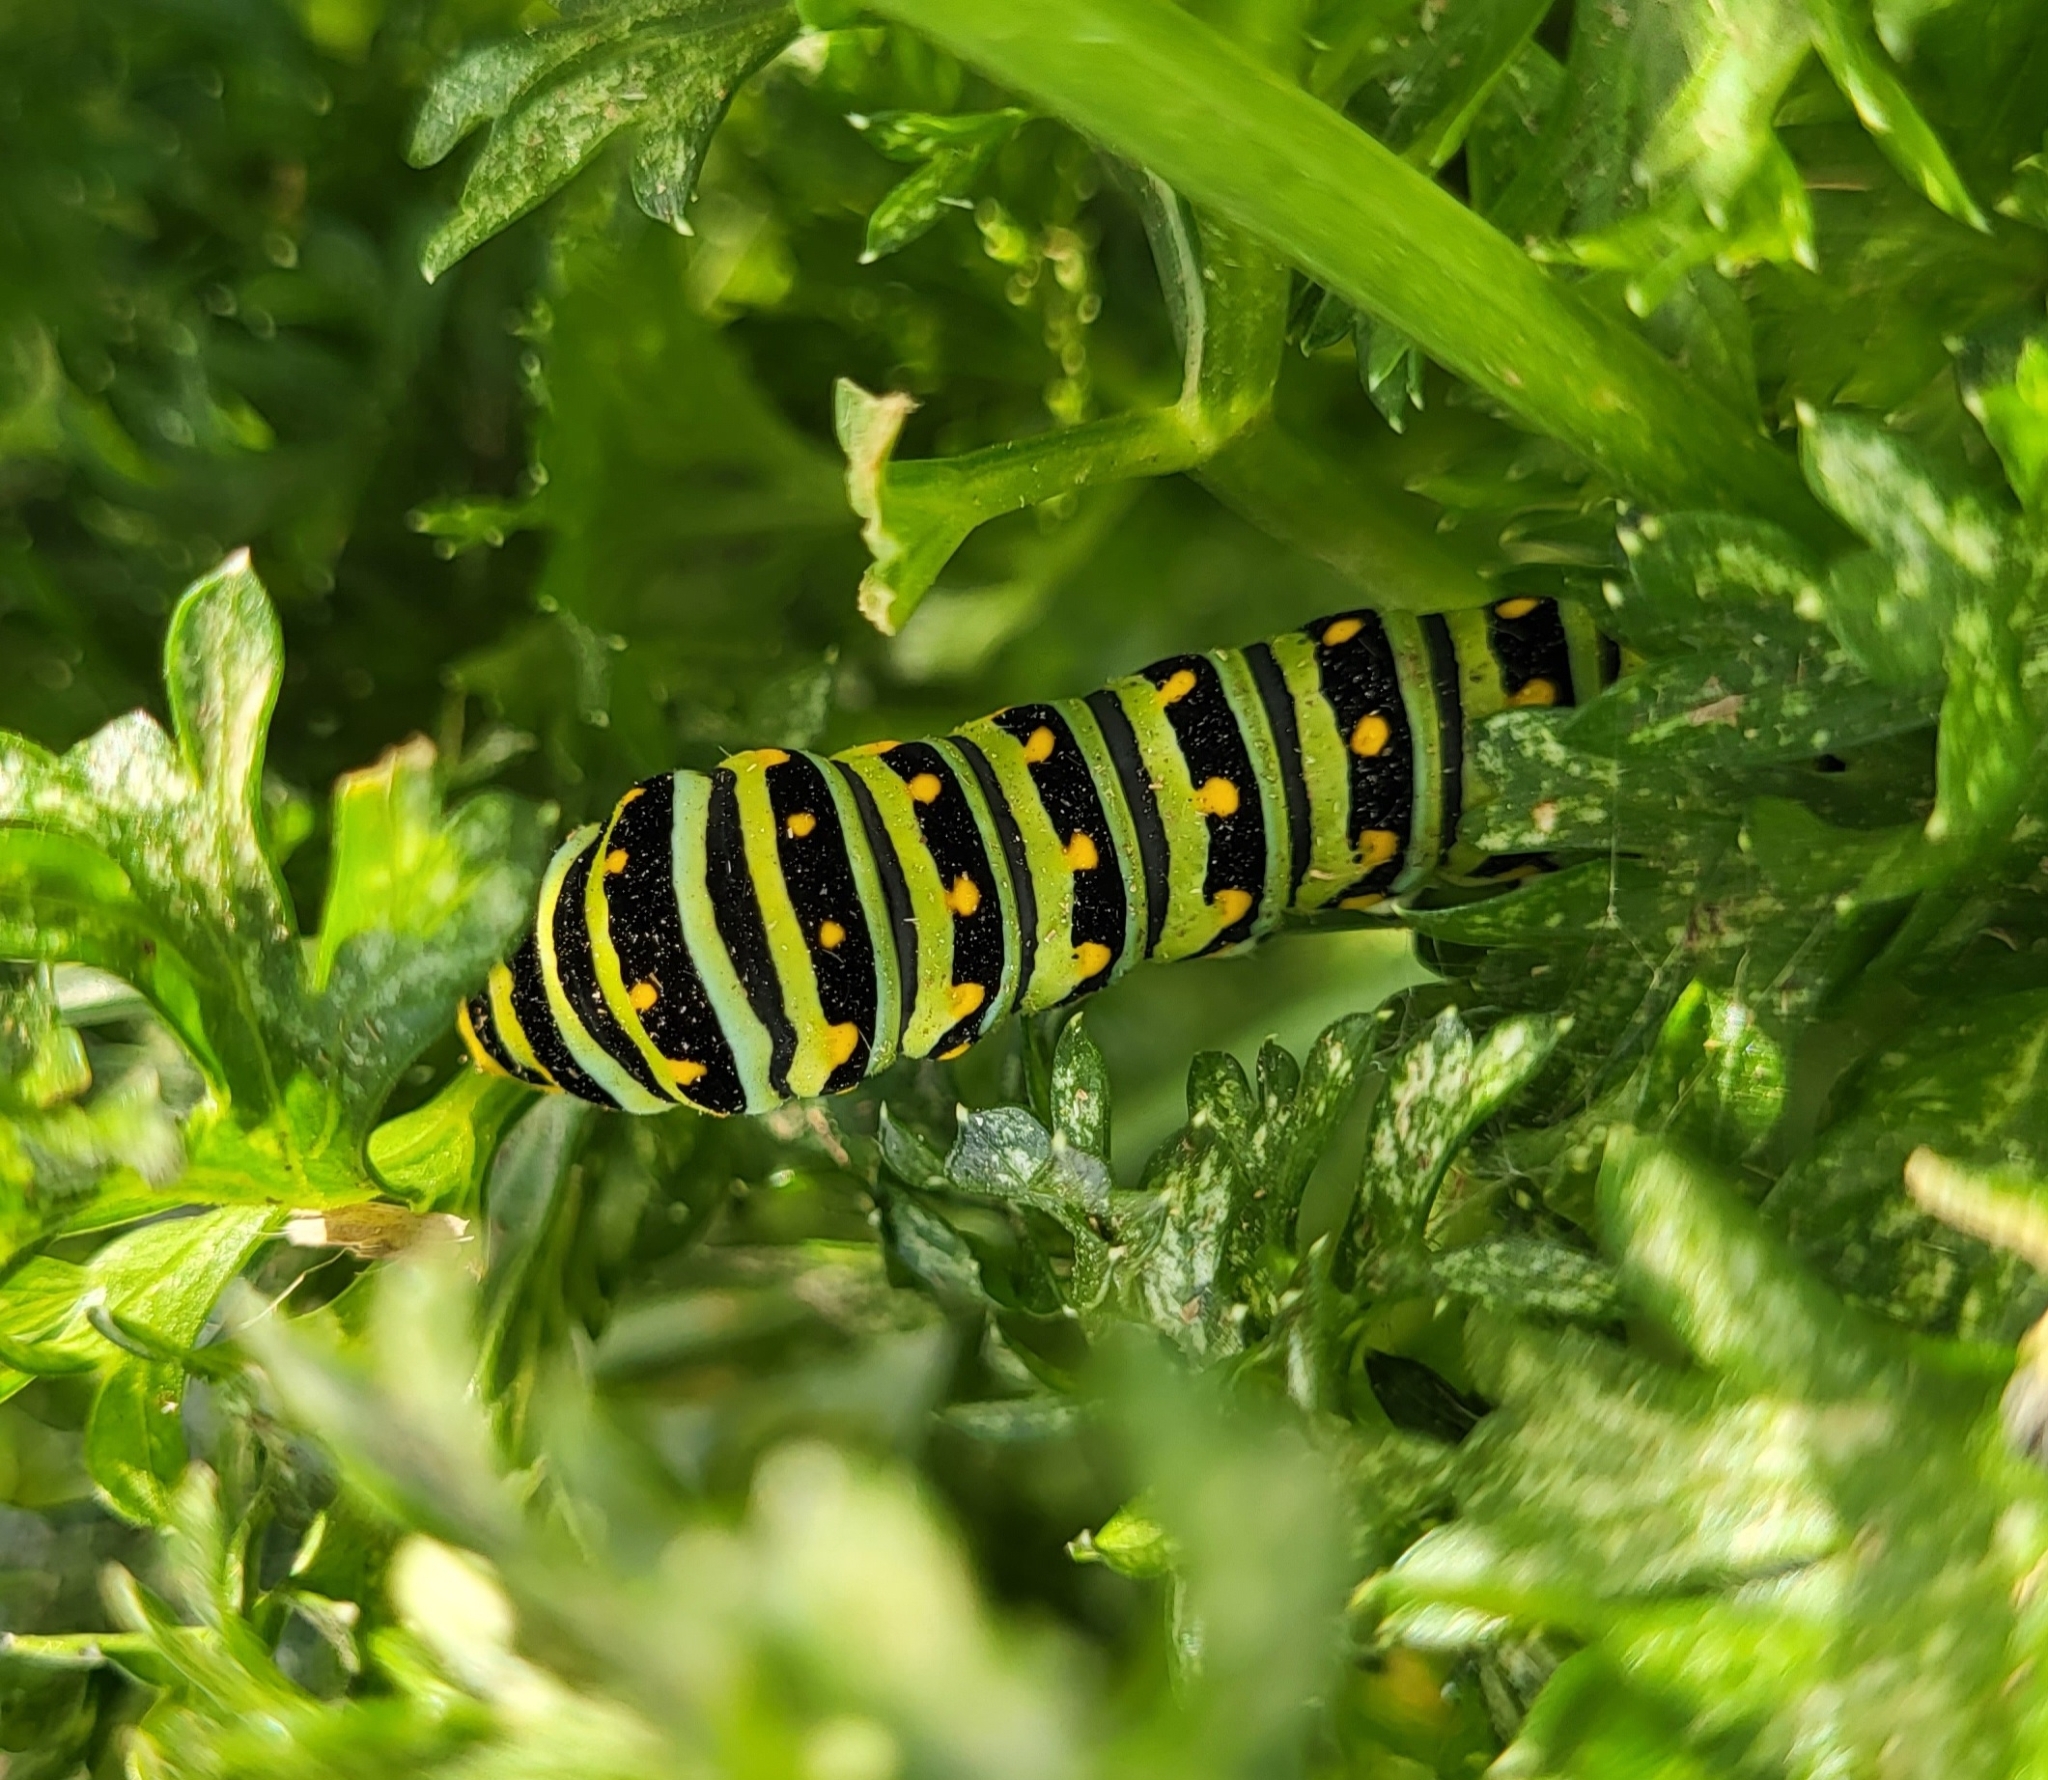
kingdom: Animalia
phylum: Arthropoda
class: Insecta
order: Lepidoptera
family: Papilionidae
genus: Papilio
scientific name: Papilio polyxenes
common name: Black swallowtail
